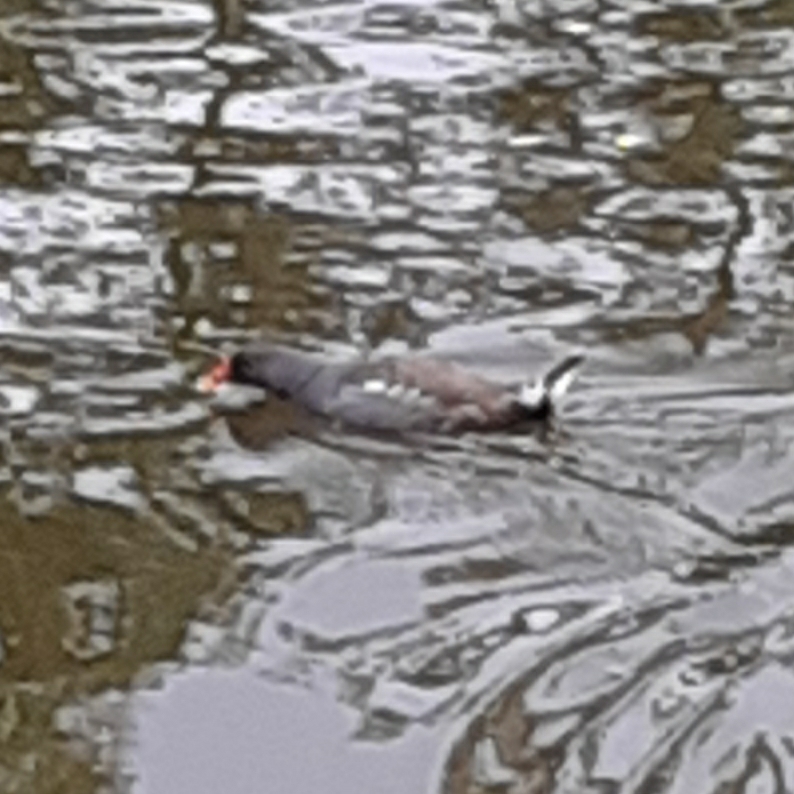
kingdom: Animalia
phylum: Chordata
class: Aves
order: Gruiformes
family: Rallidae
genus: Gallinula
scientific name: Gallinula chloropus
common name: Common moorhen
